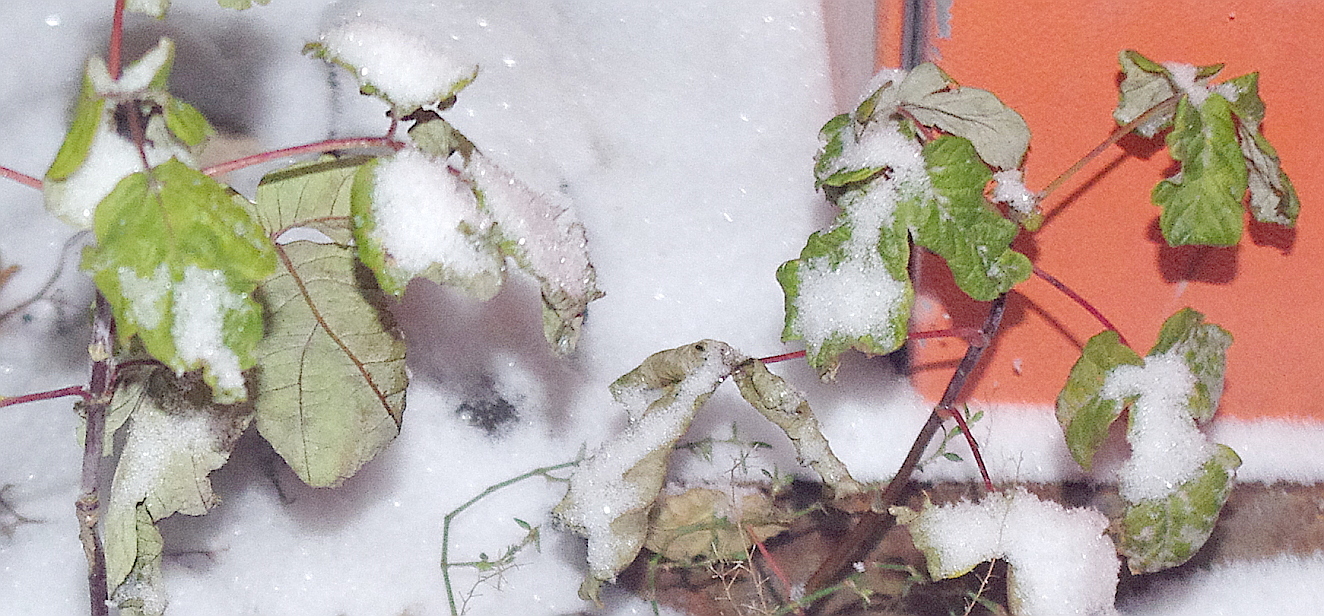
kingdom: Plantae
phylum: Tracheophyta
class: Magnoliopsida
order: Sapindales
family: Sapindaceae
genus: Acer
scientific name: Acer negundo
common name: Ashleaf maple
